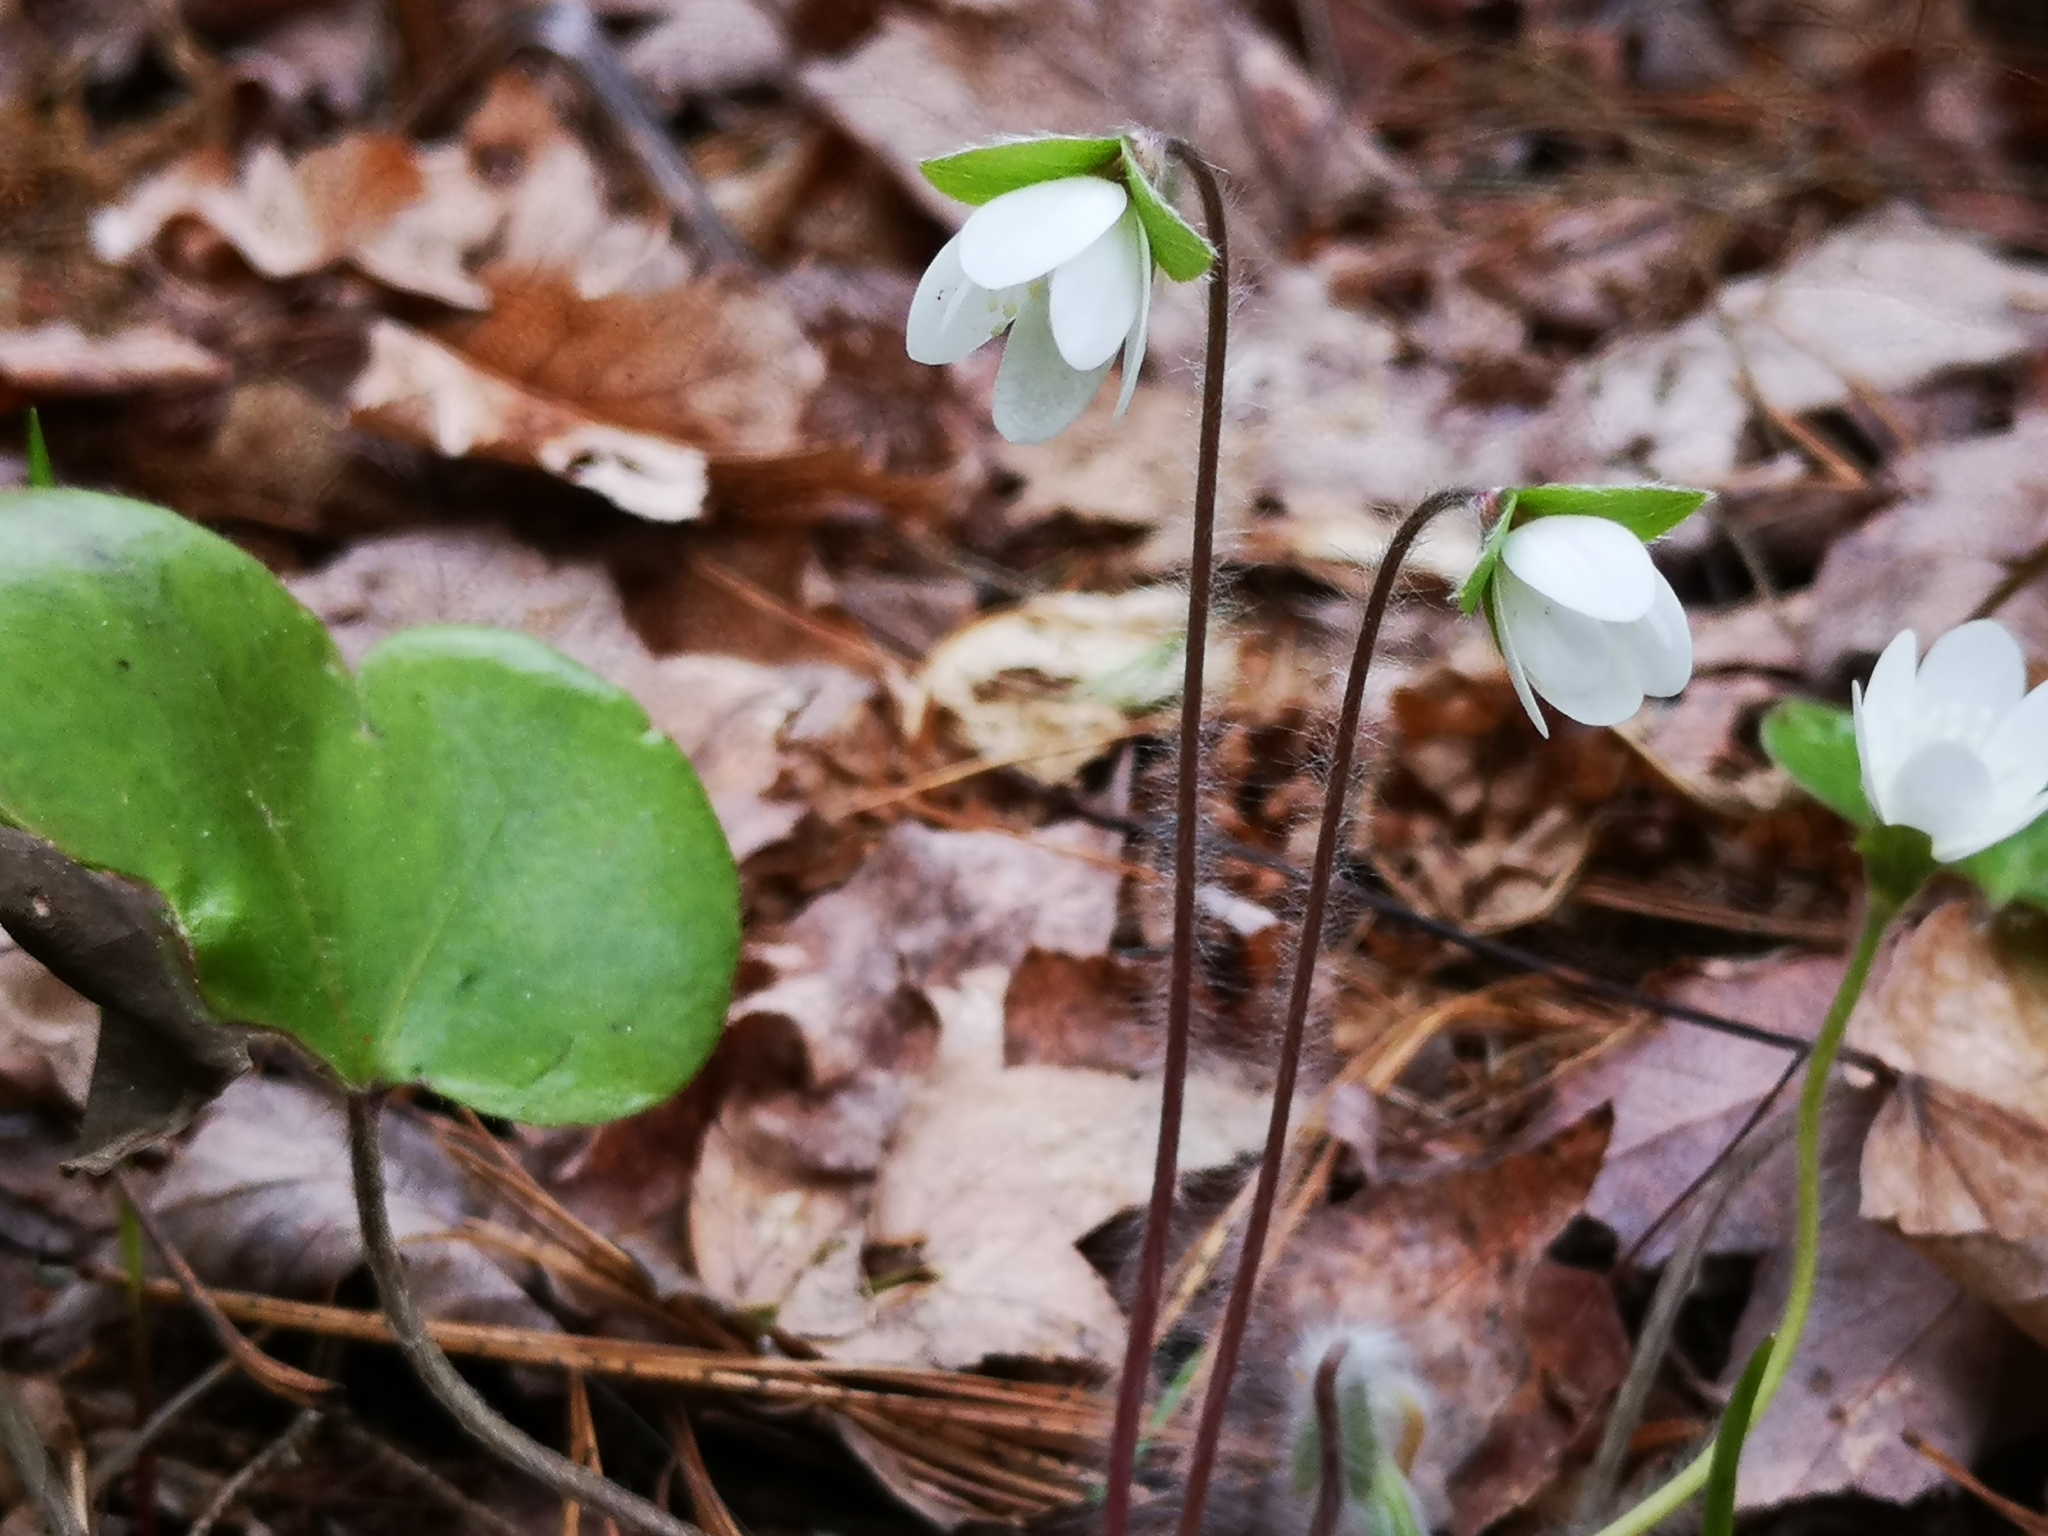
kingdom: Plantae
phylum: Tracheophyta
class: Magnoliopsida
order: Ranunculales
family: Ranunculaceae
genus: Hepatica
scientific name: Hepatica americana
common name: American hepatica
